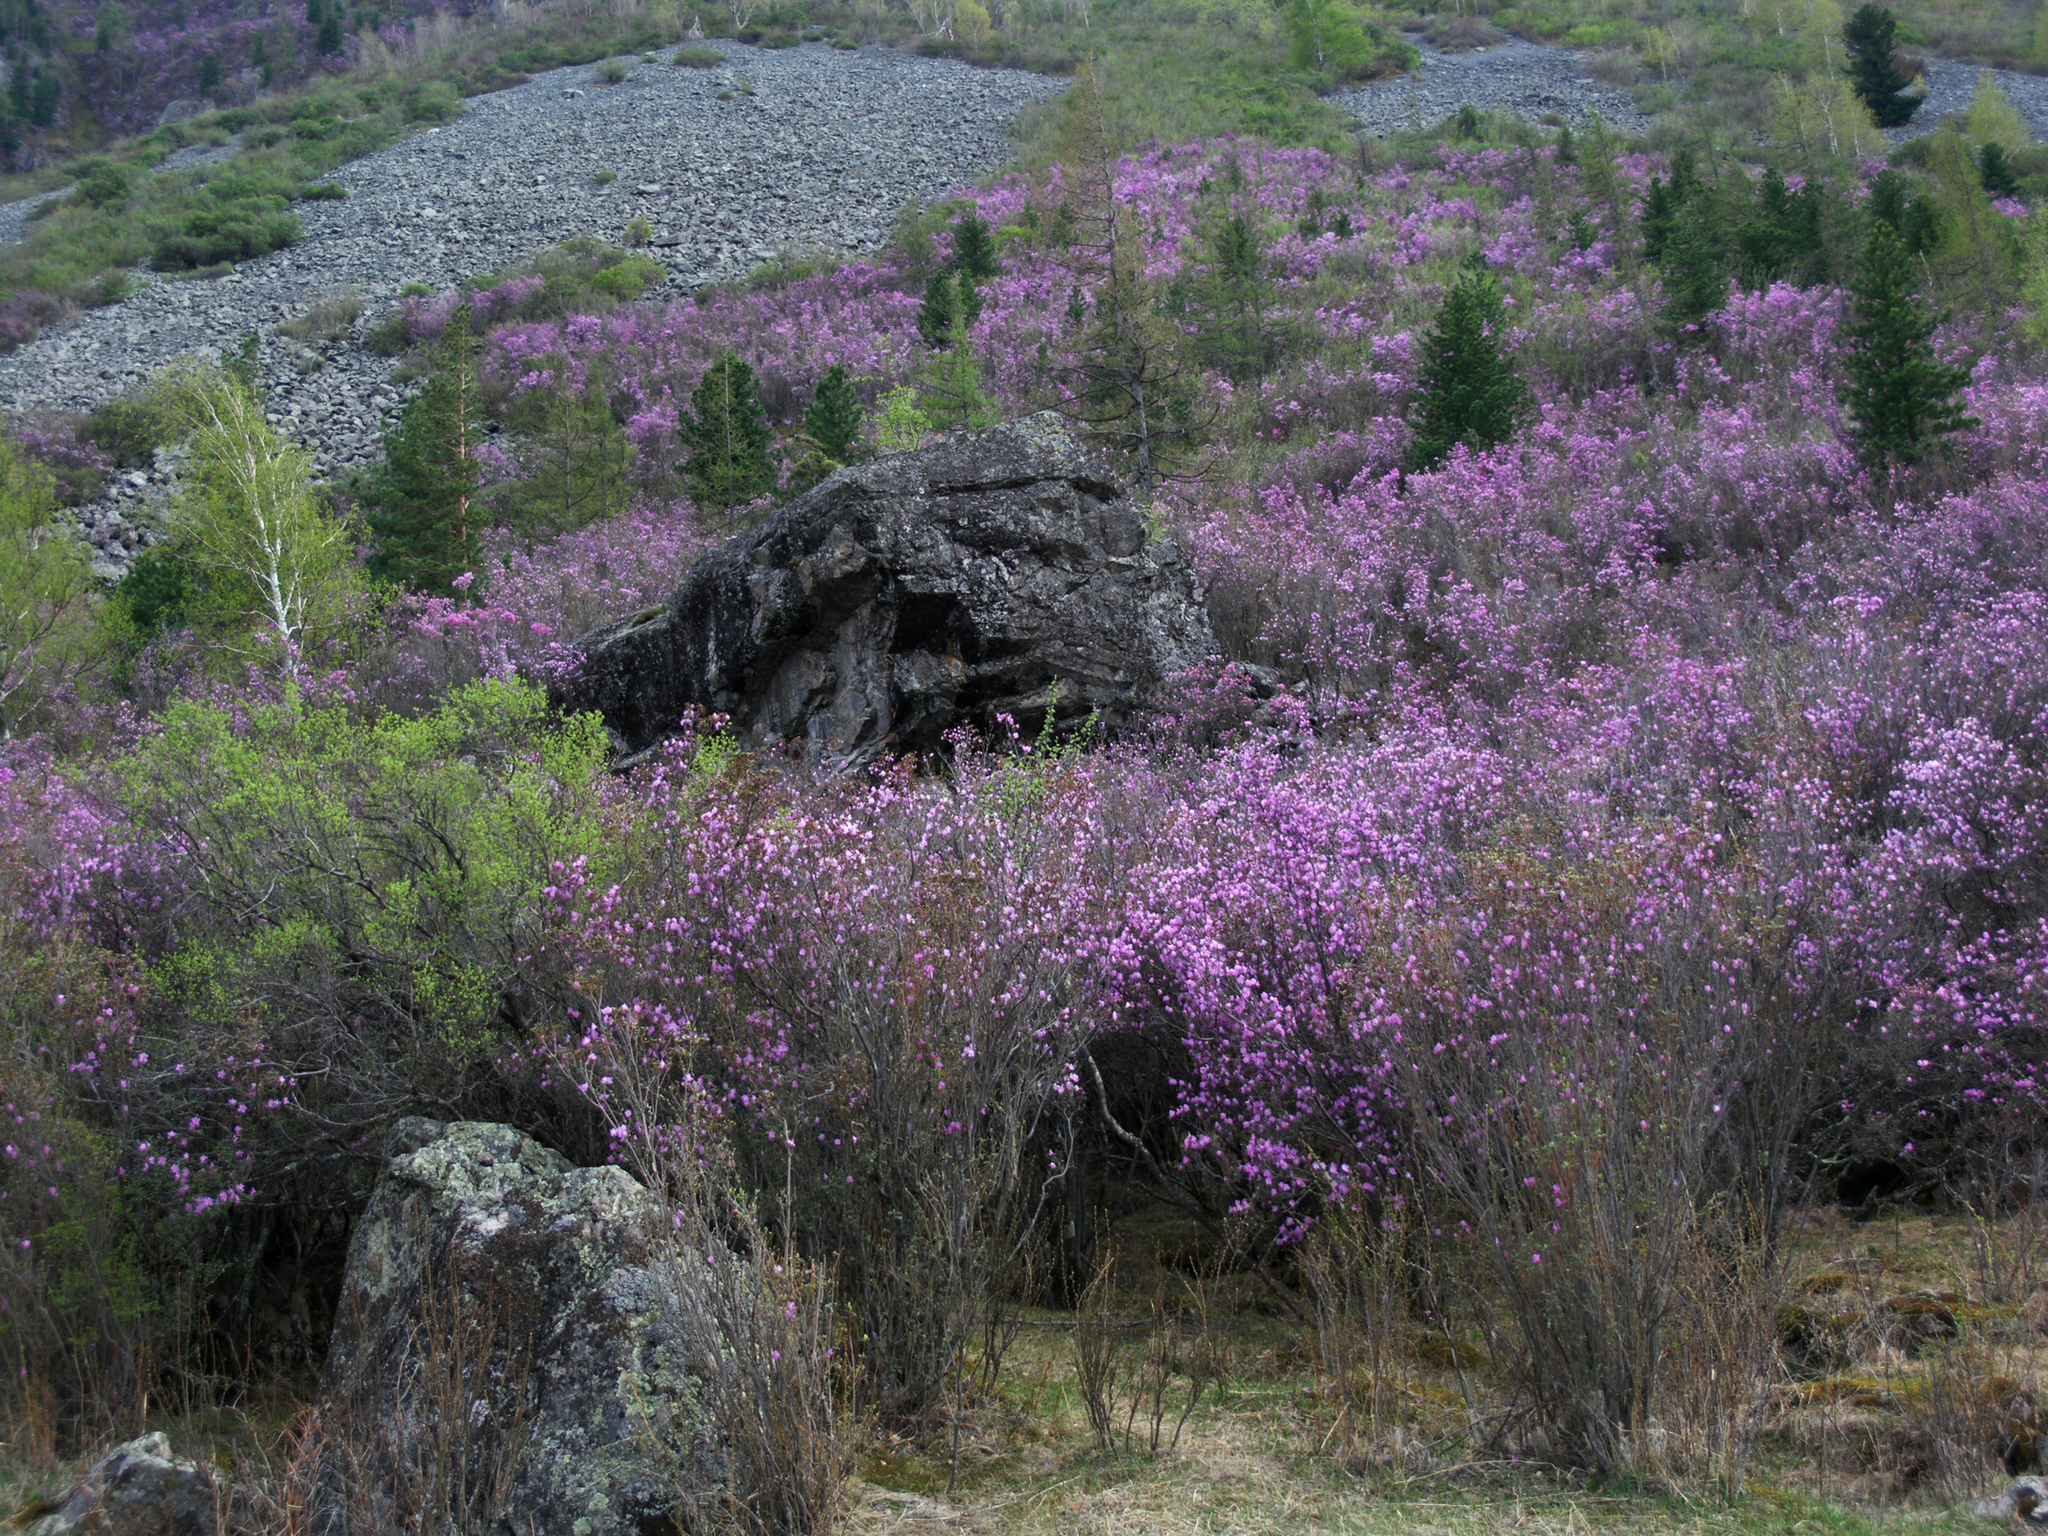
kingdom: Plantae
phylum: Tracheophyta
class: Pinopsida
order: Pinales
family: Pinaceae
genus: Picea
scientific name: Picea obovata
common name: Siberian spruce
